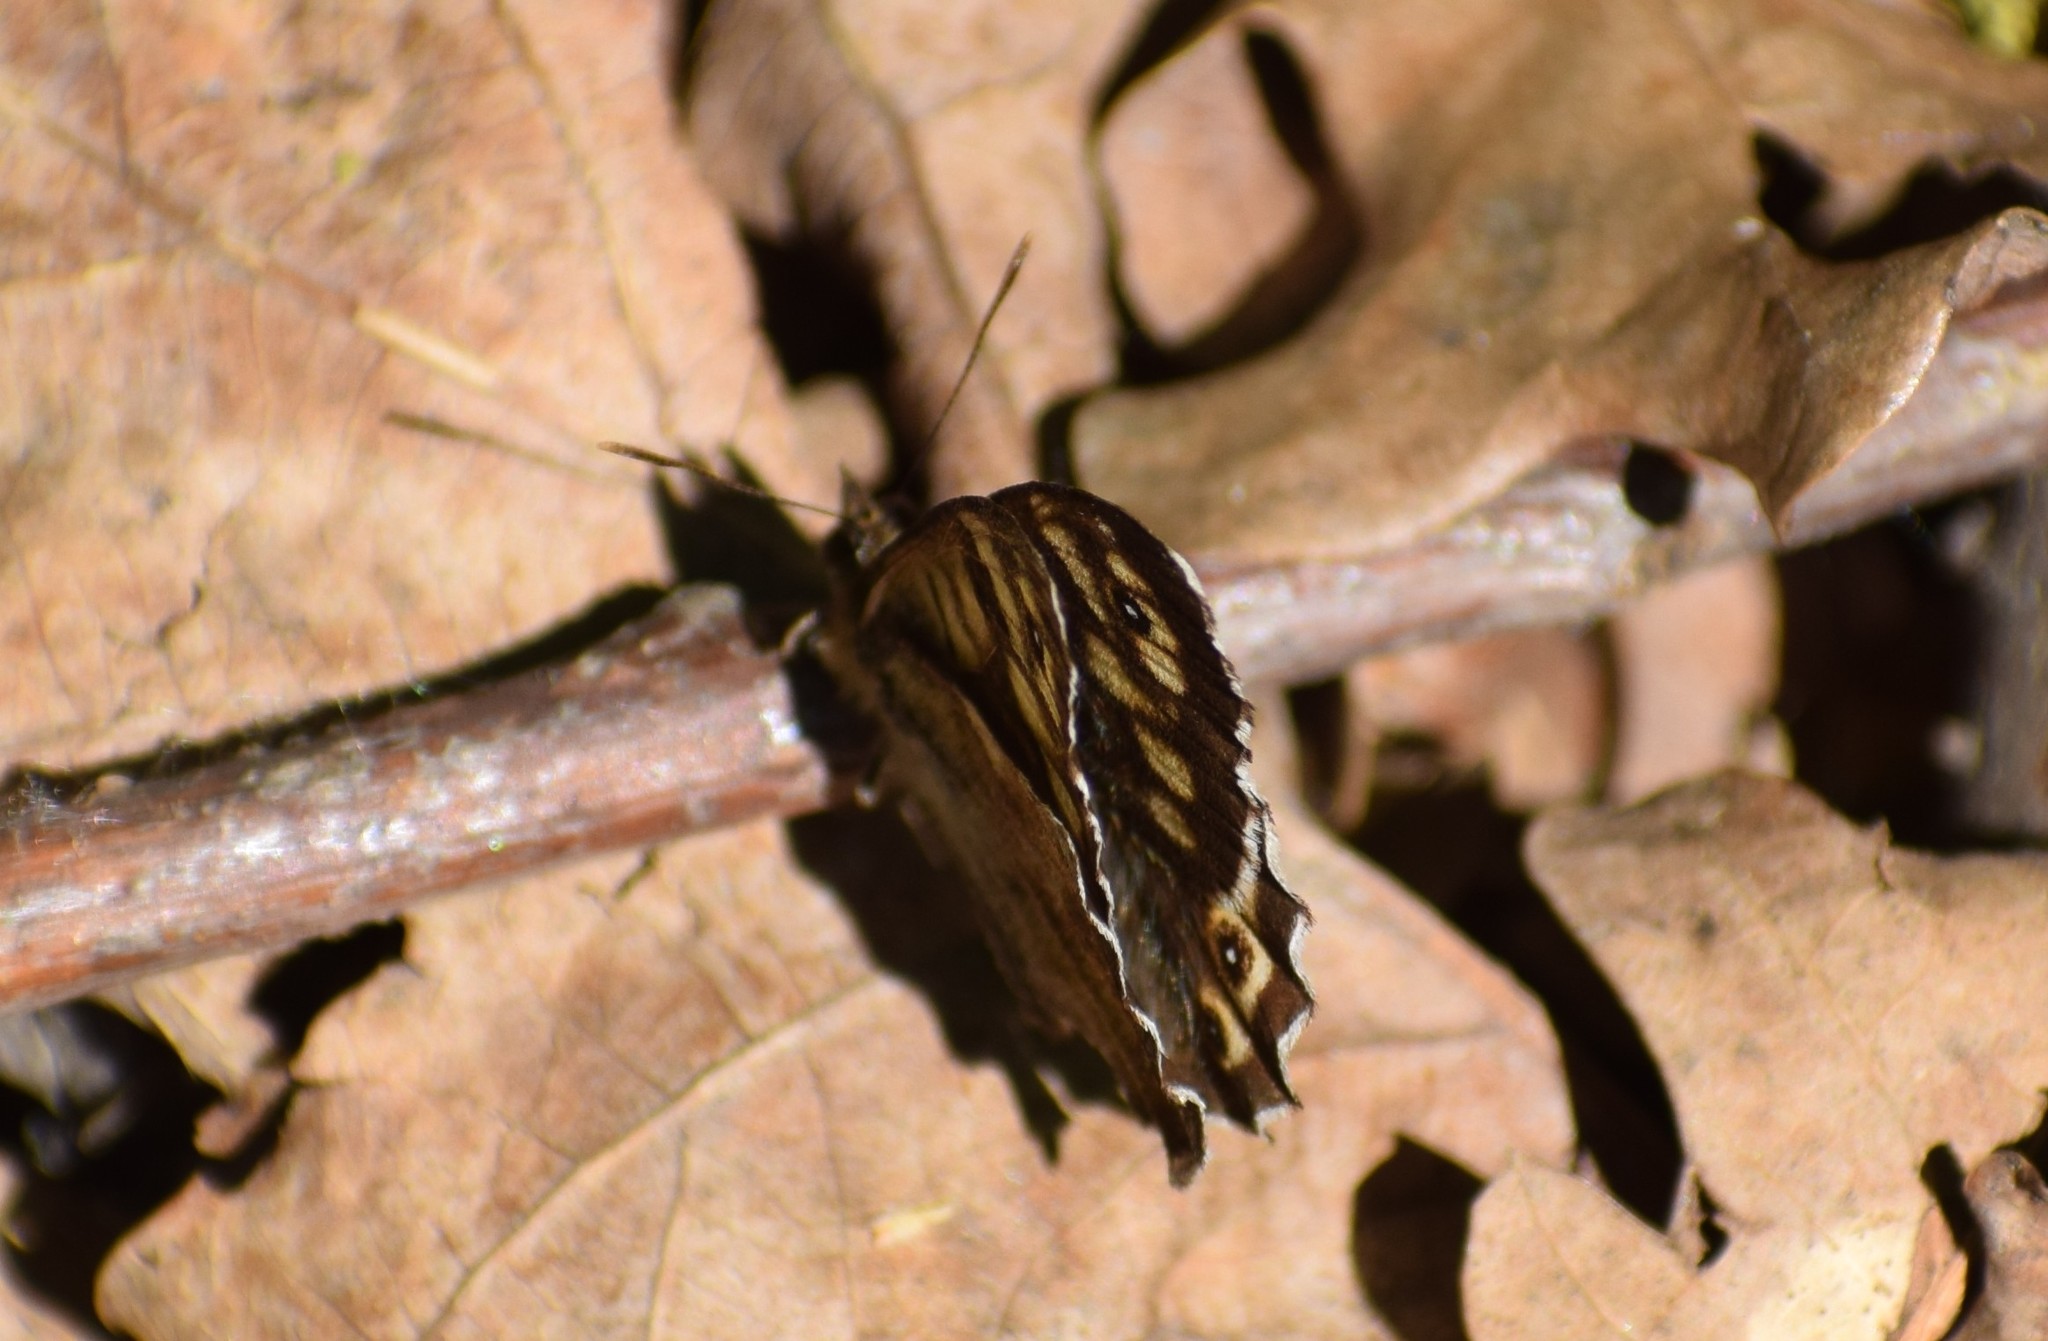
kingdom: Animalia
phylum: Arthropoda
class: Insecta
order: Lepidoptera
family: Nymphalidae
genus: Pararge
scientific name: Pararge aegeria
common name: Speckled wood
